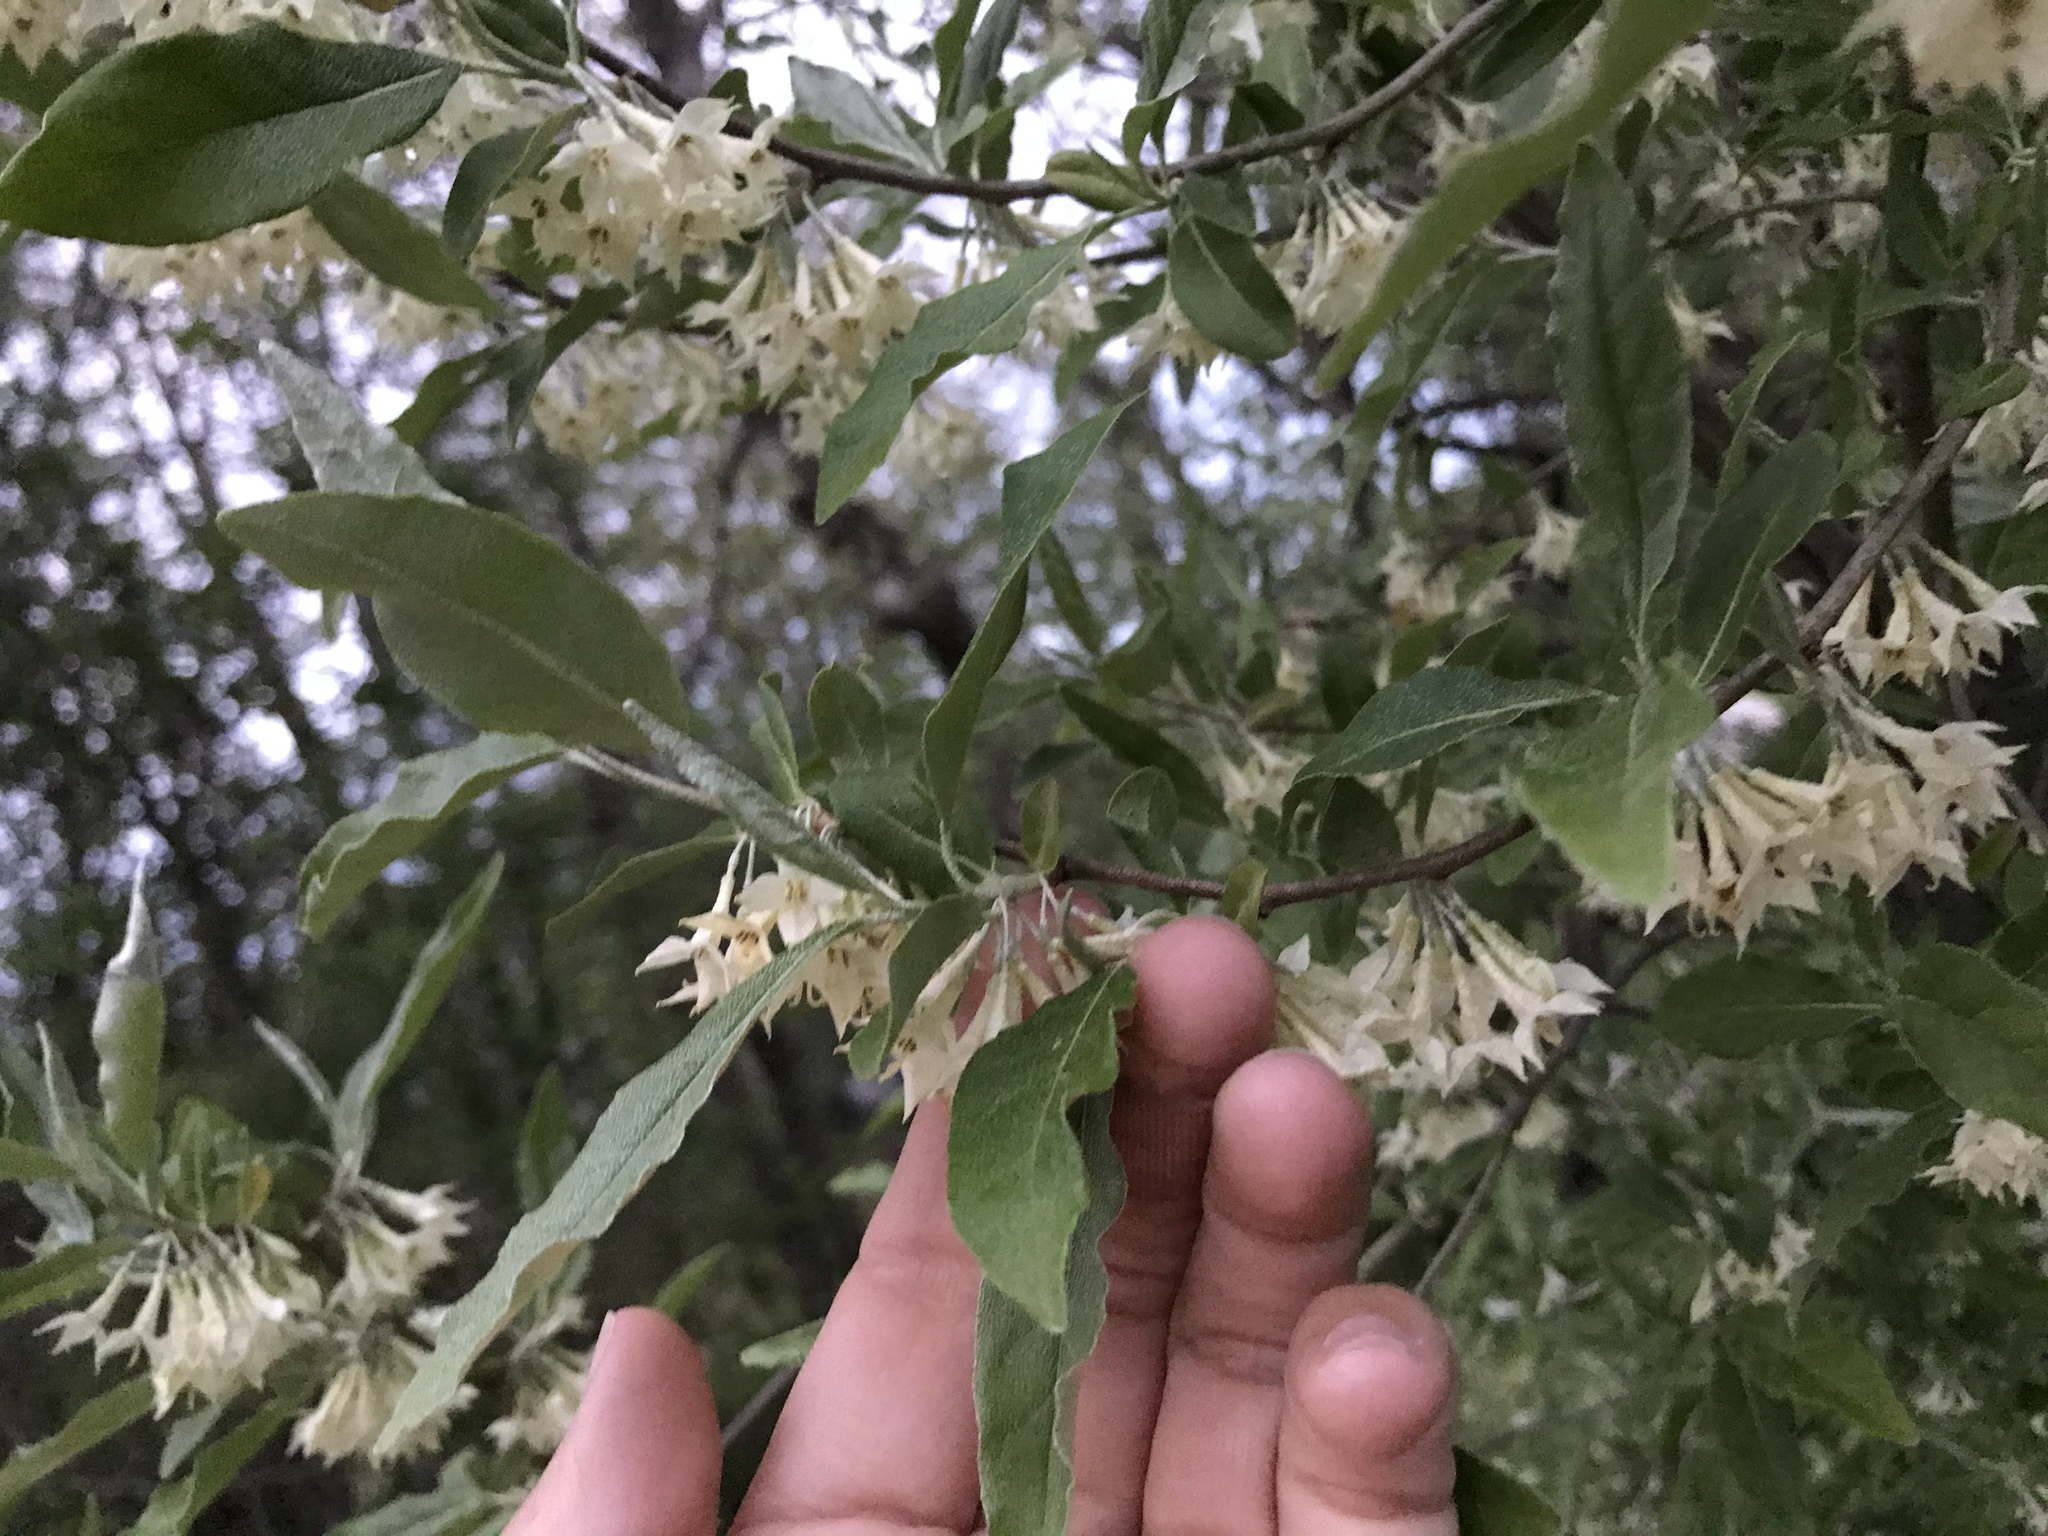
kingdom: Plantae
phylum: Tracheophyta
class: Magnoliopsida
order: Rosales
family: Elaeagnaceae
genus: Elaeagnus
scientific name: Elaeagnus umbellata
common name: Autumn olive
